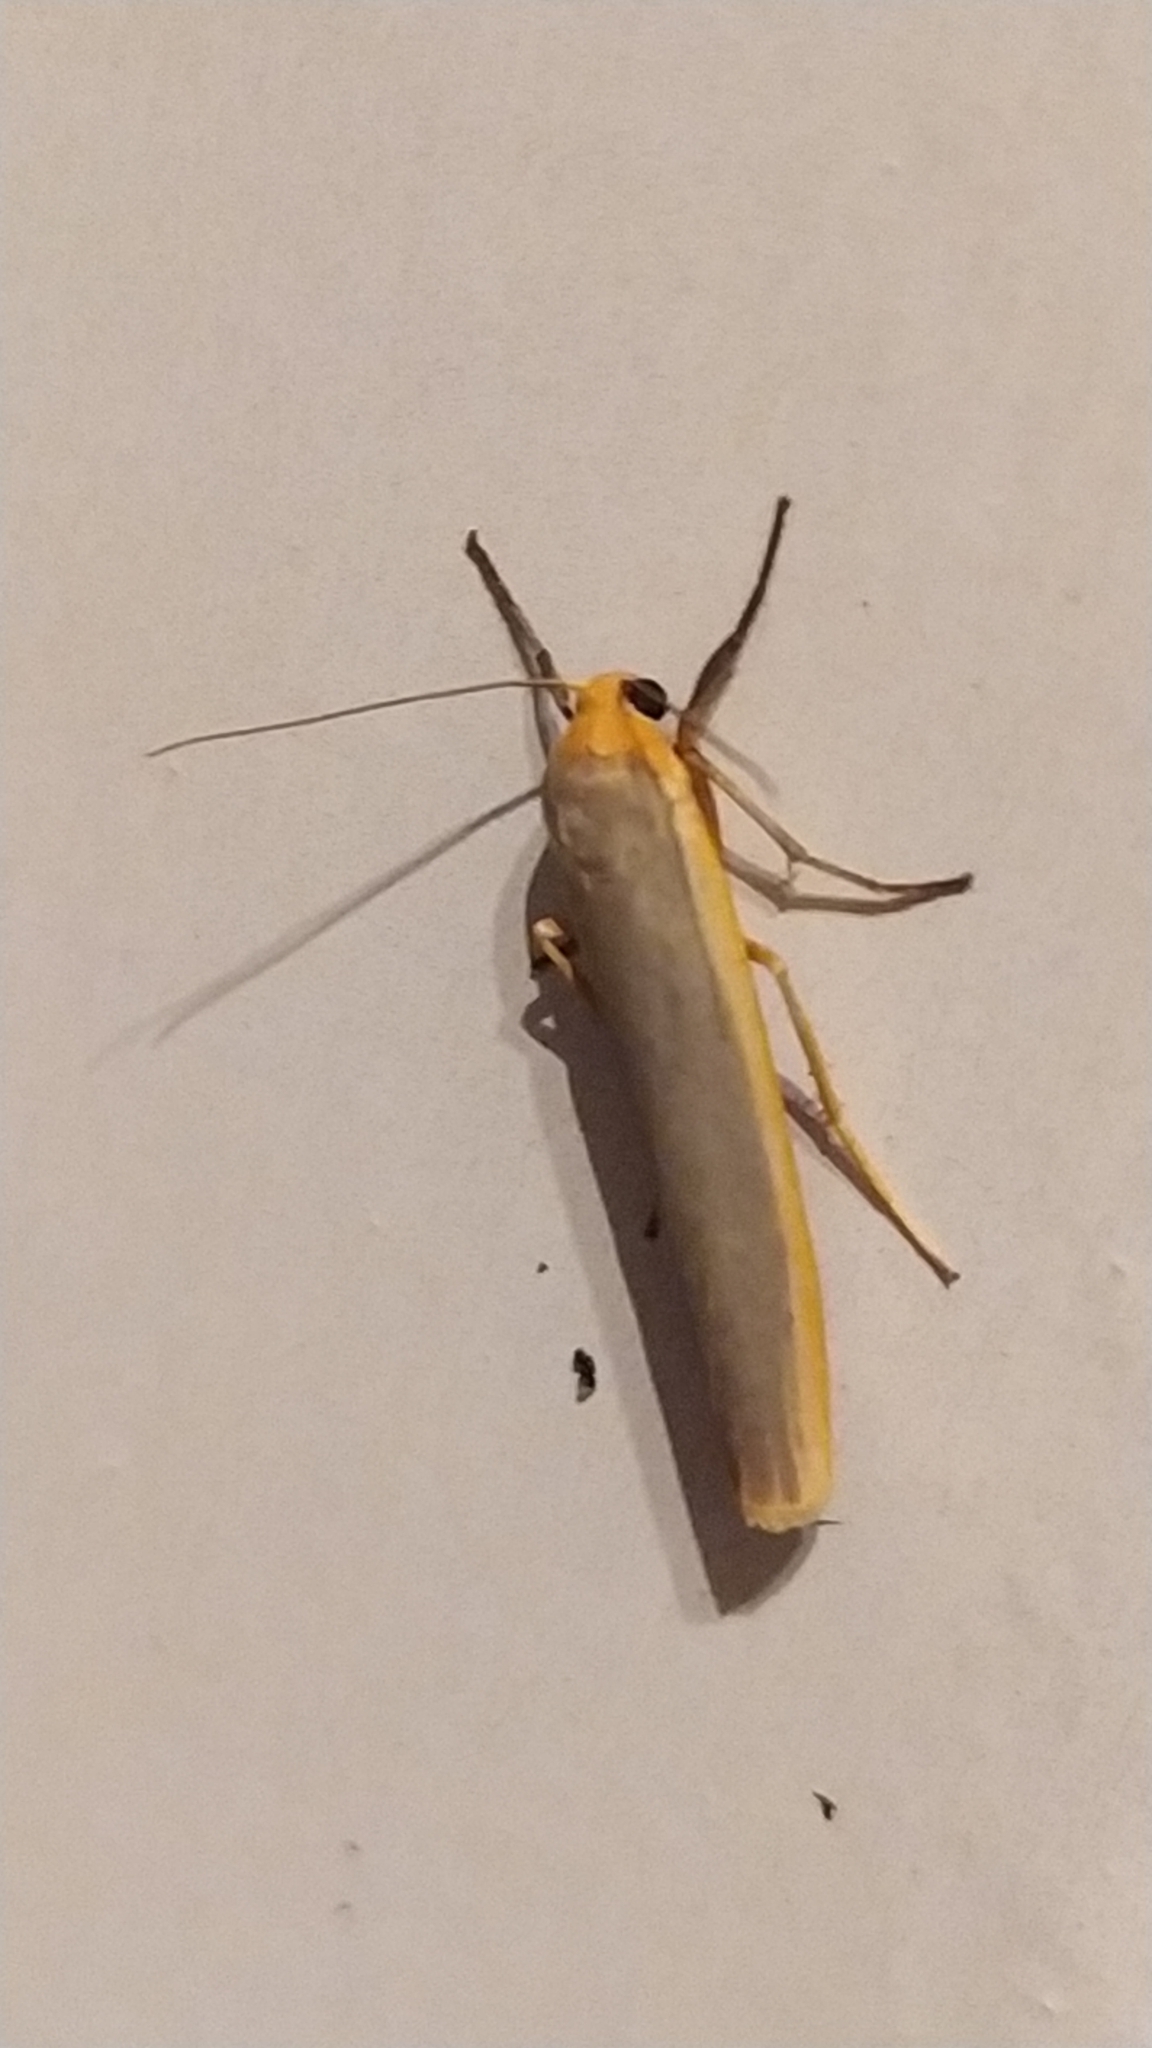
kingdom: Animalia
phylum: Arthropoda
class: Insecta
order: Lepidoptera
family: Erebidae
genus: Manulea
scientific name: Manulea complana
